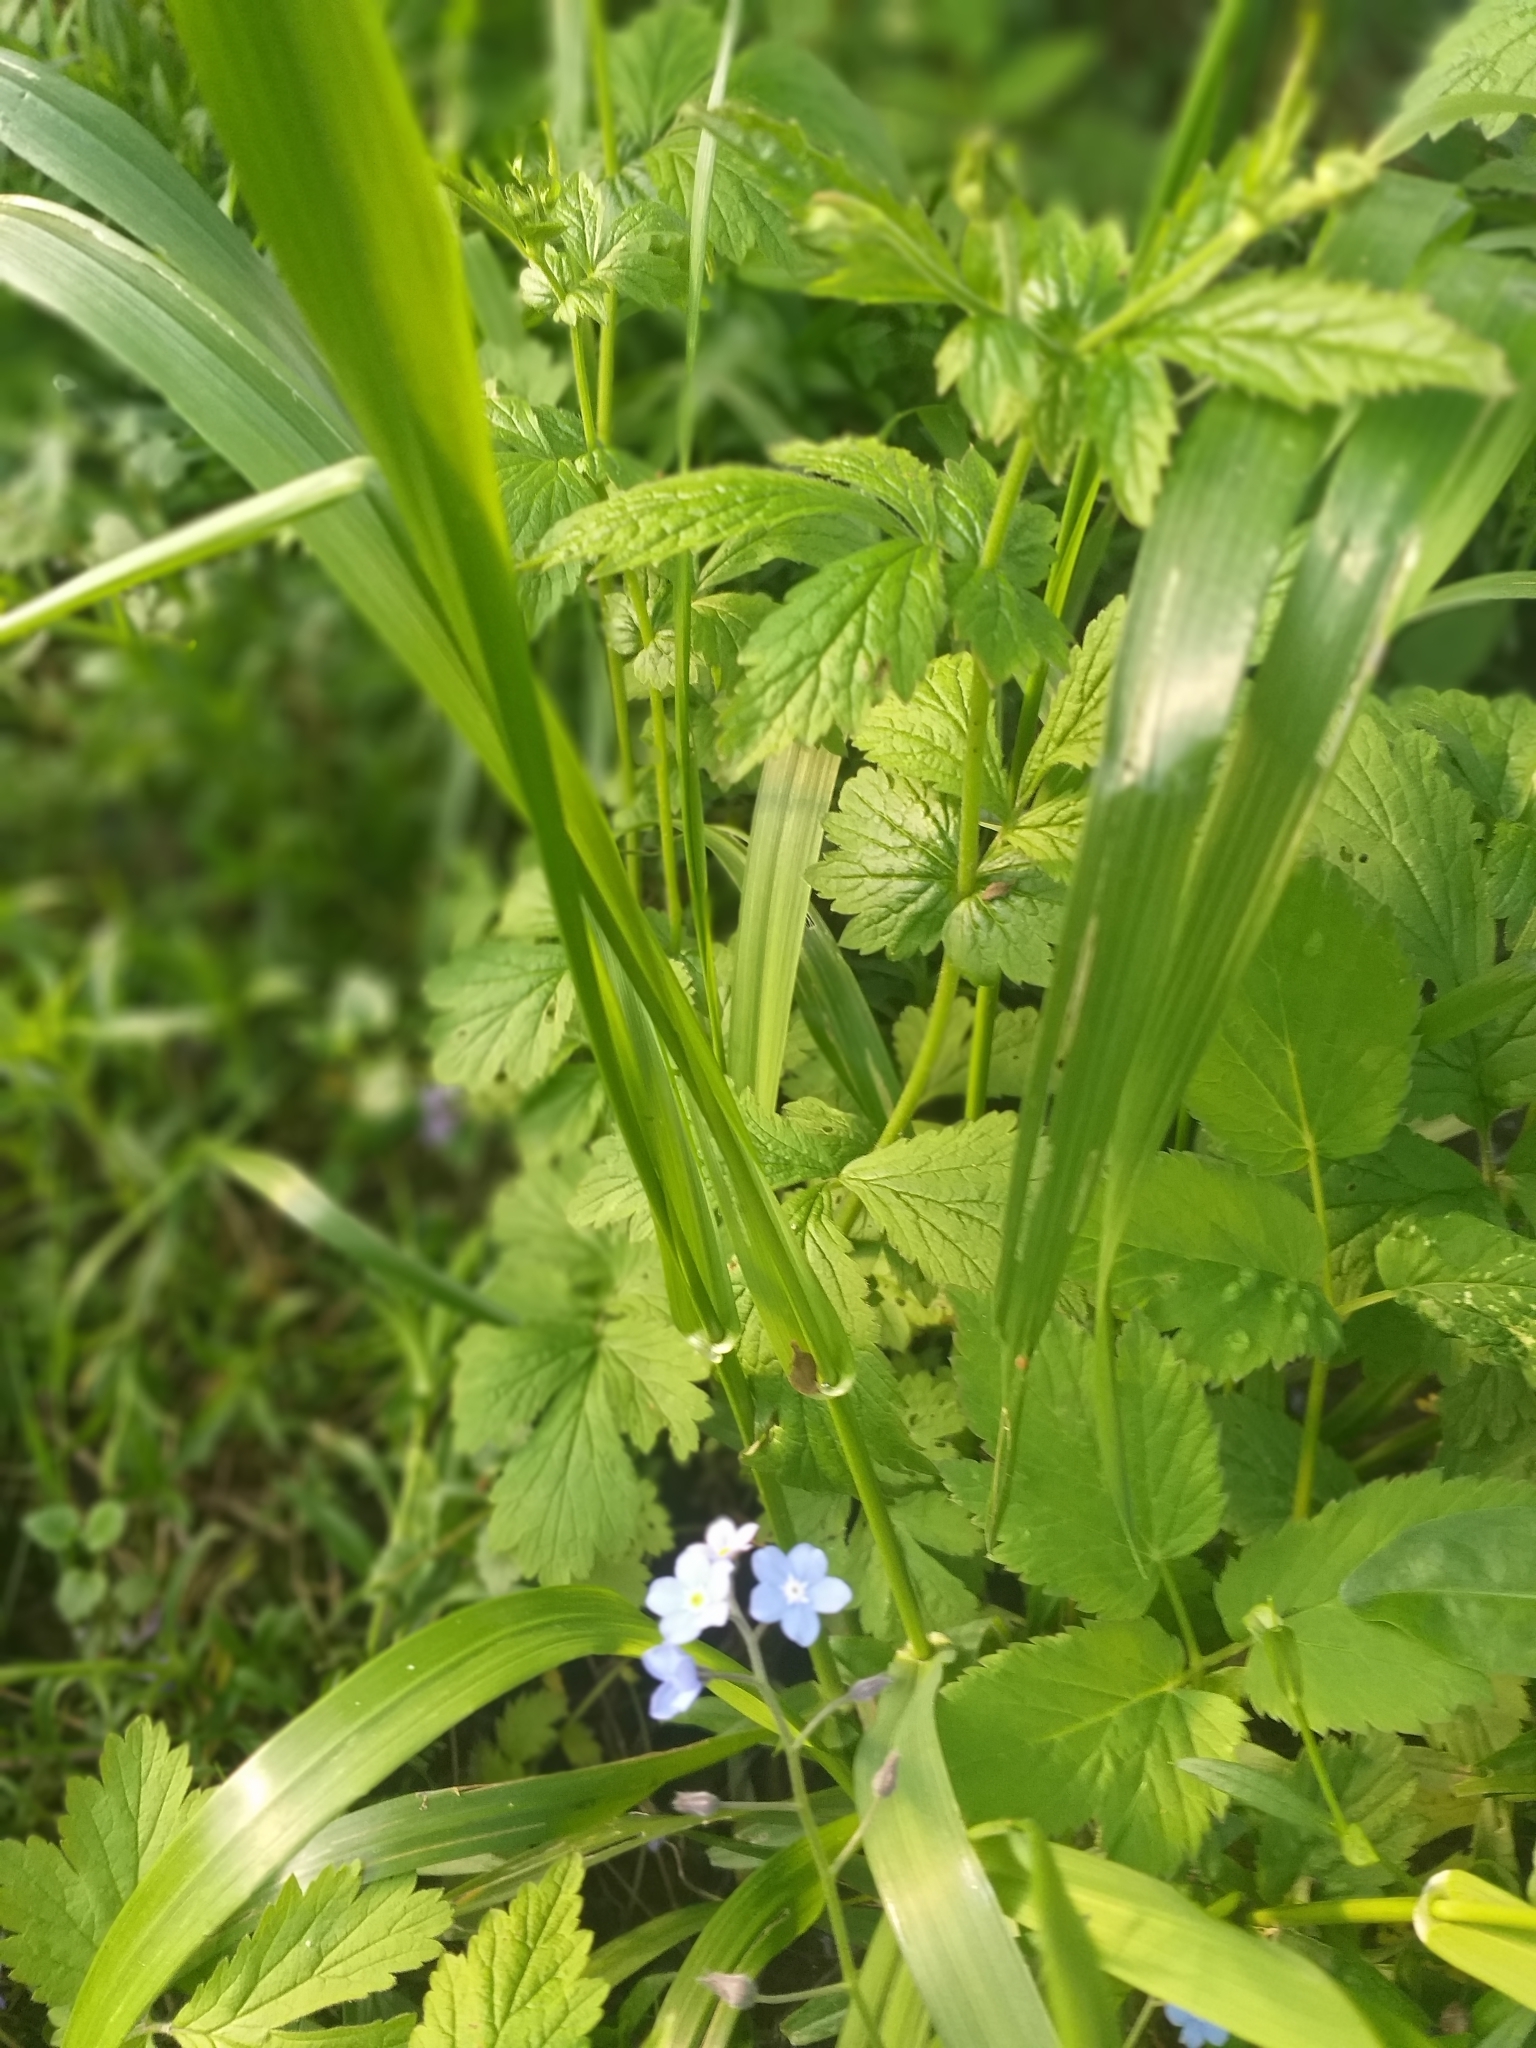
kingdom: Plantae
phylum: Tracheophyta
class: Liliopsida
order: Poales
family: Poaceae
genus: Lolium
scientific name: Lolium giganteum
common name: Giant fescue
